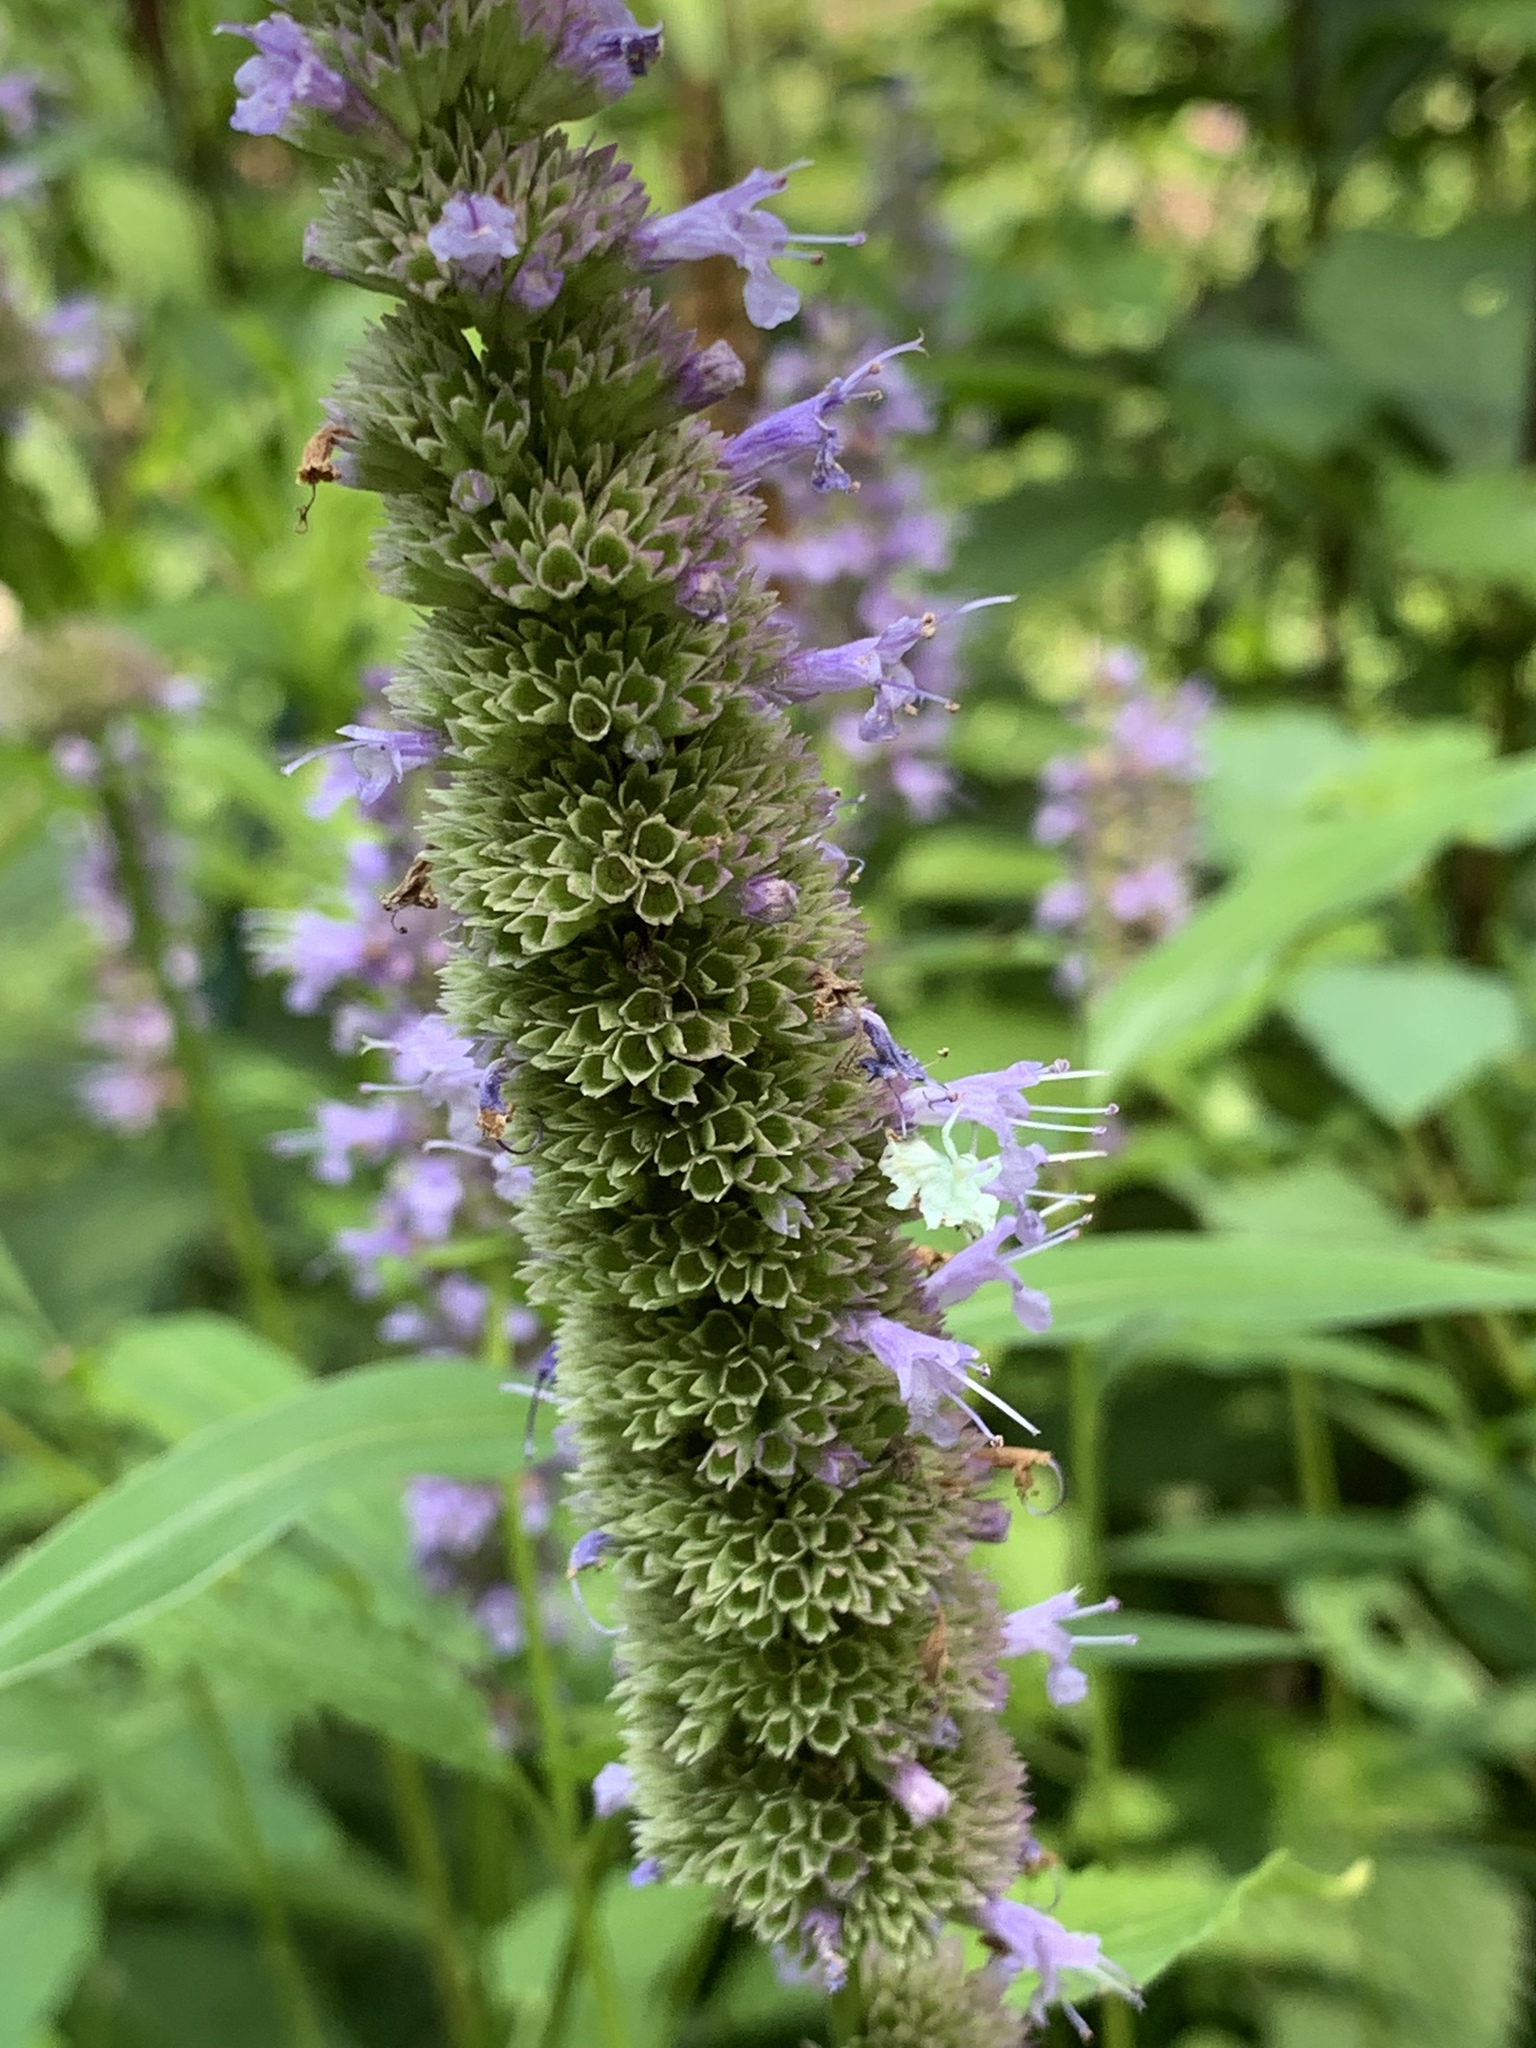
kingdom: Plantae
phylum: Tracheophyta
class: Magnoliopsida
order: Lamiales
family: Lamiaceae
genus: Agastache
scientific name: Agastache foeniculum
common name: Anise hyssop
